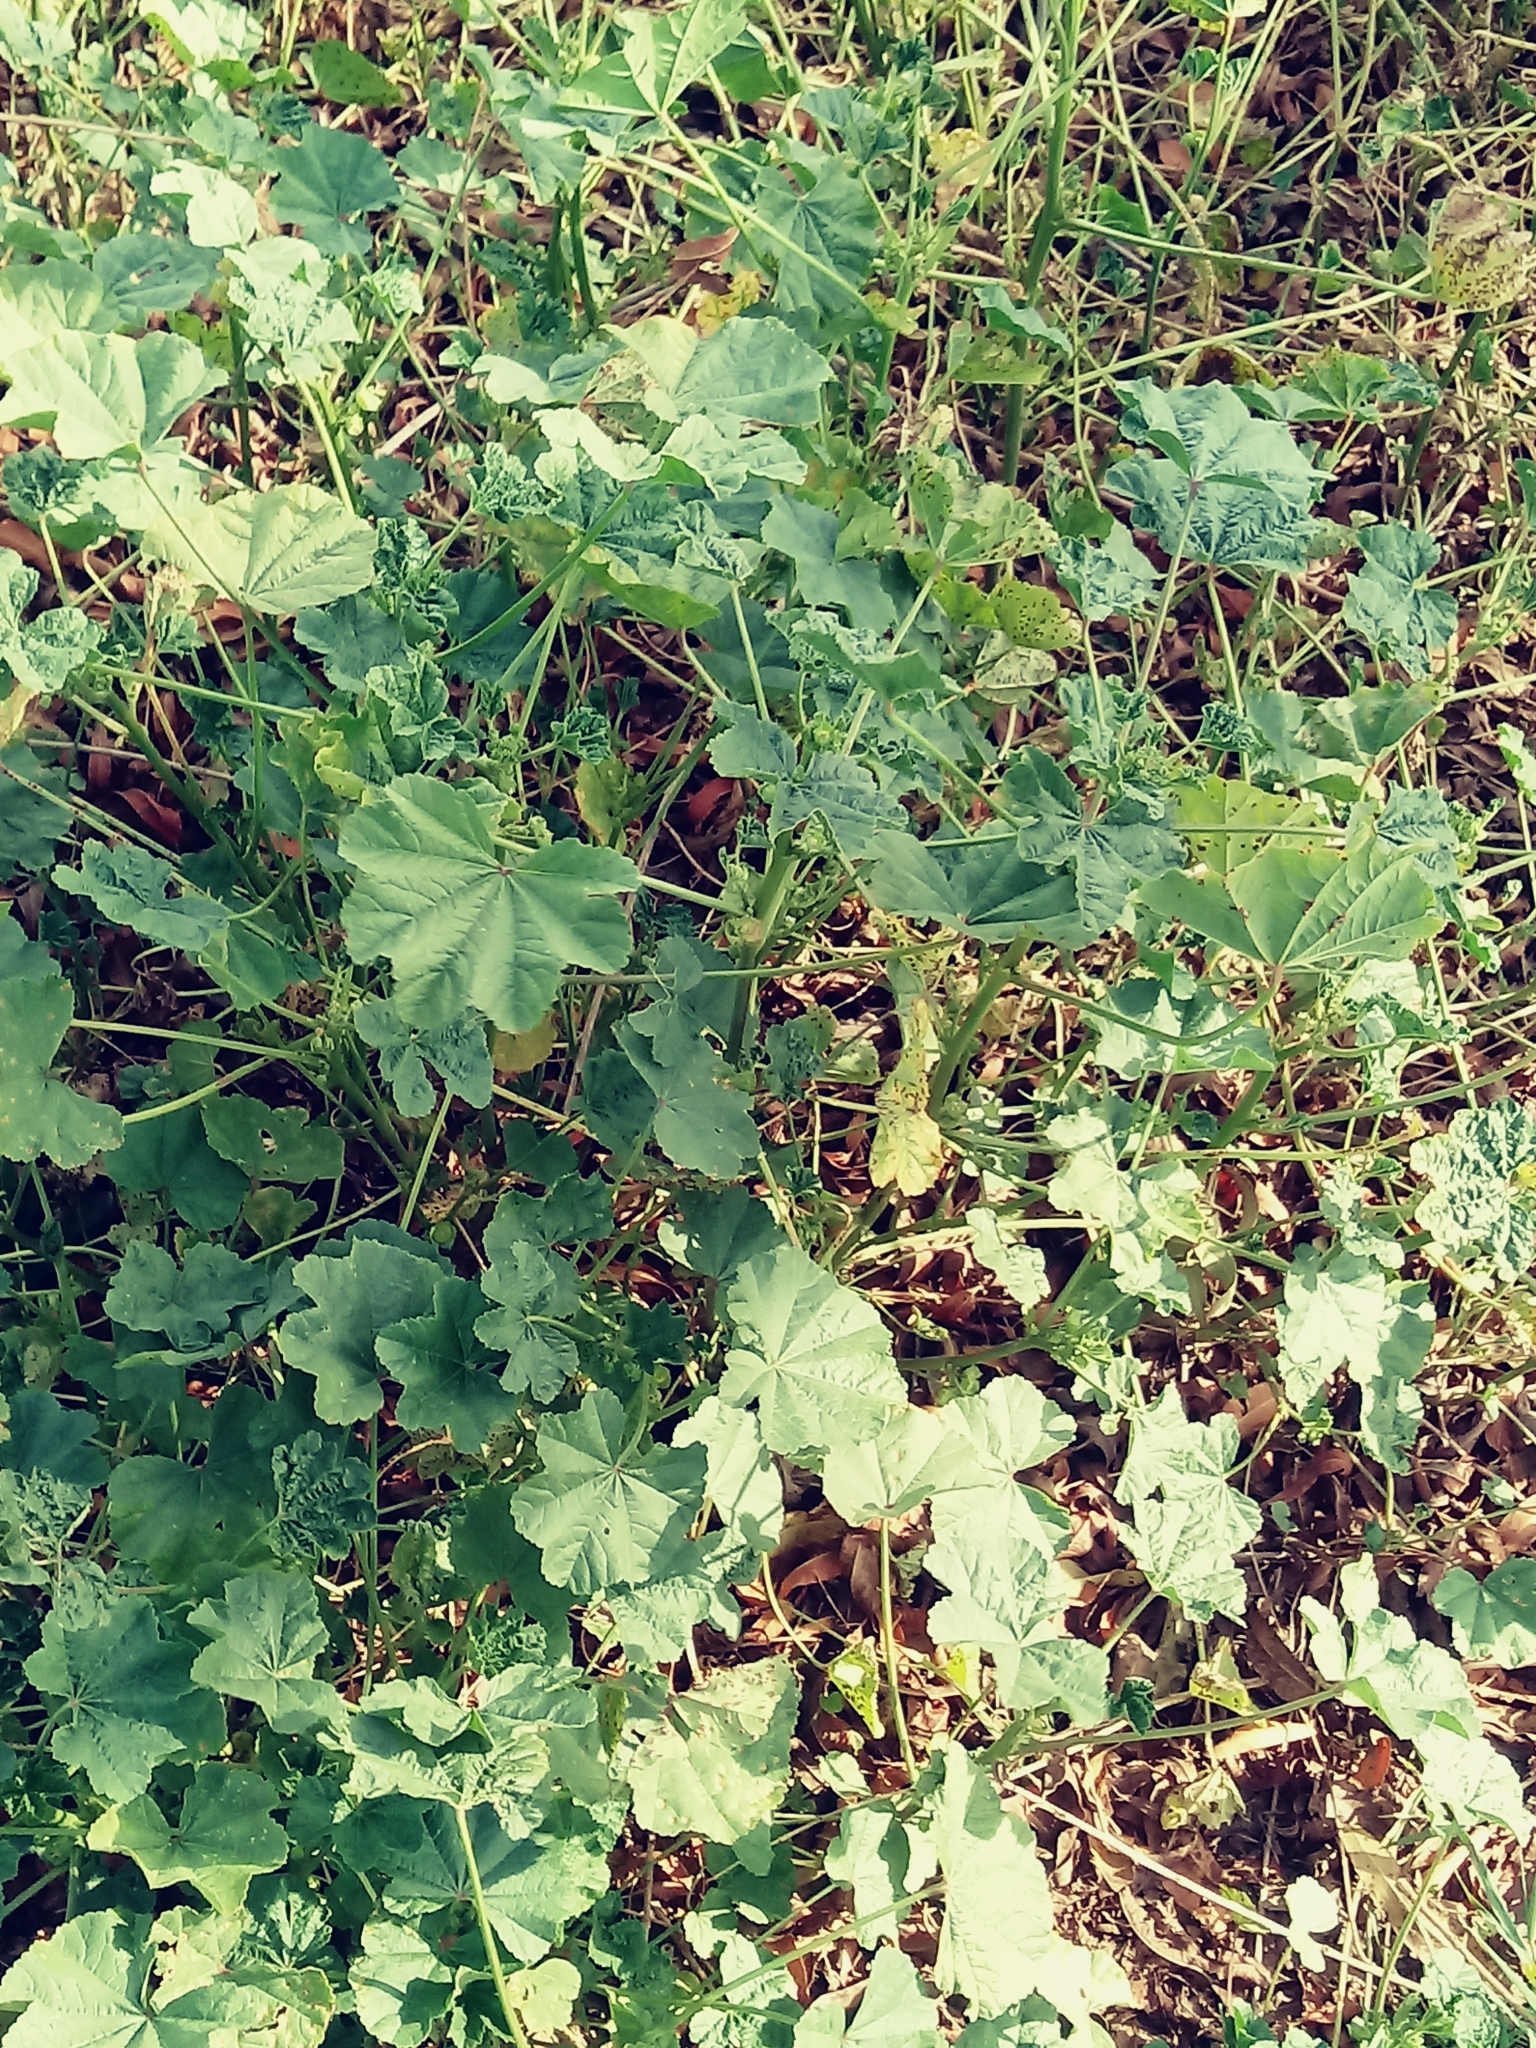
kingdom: Plantae
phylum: Tracheophyta
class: Magnoliopsida
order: Malvales
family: Malvaceae
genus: Malva
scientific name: Malva parviflora
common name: Least mallow
